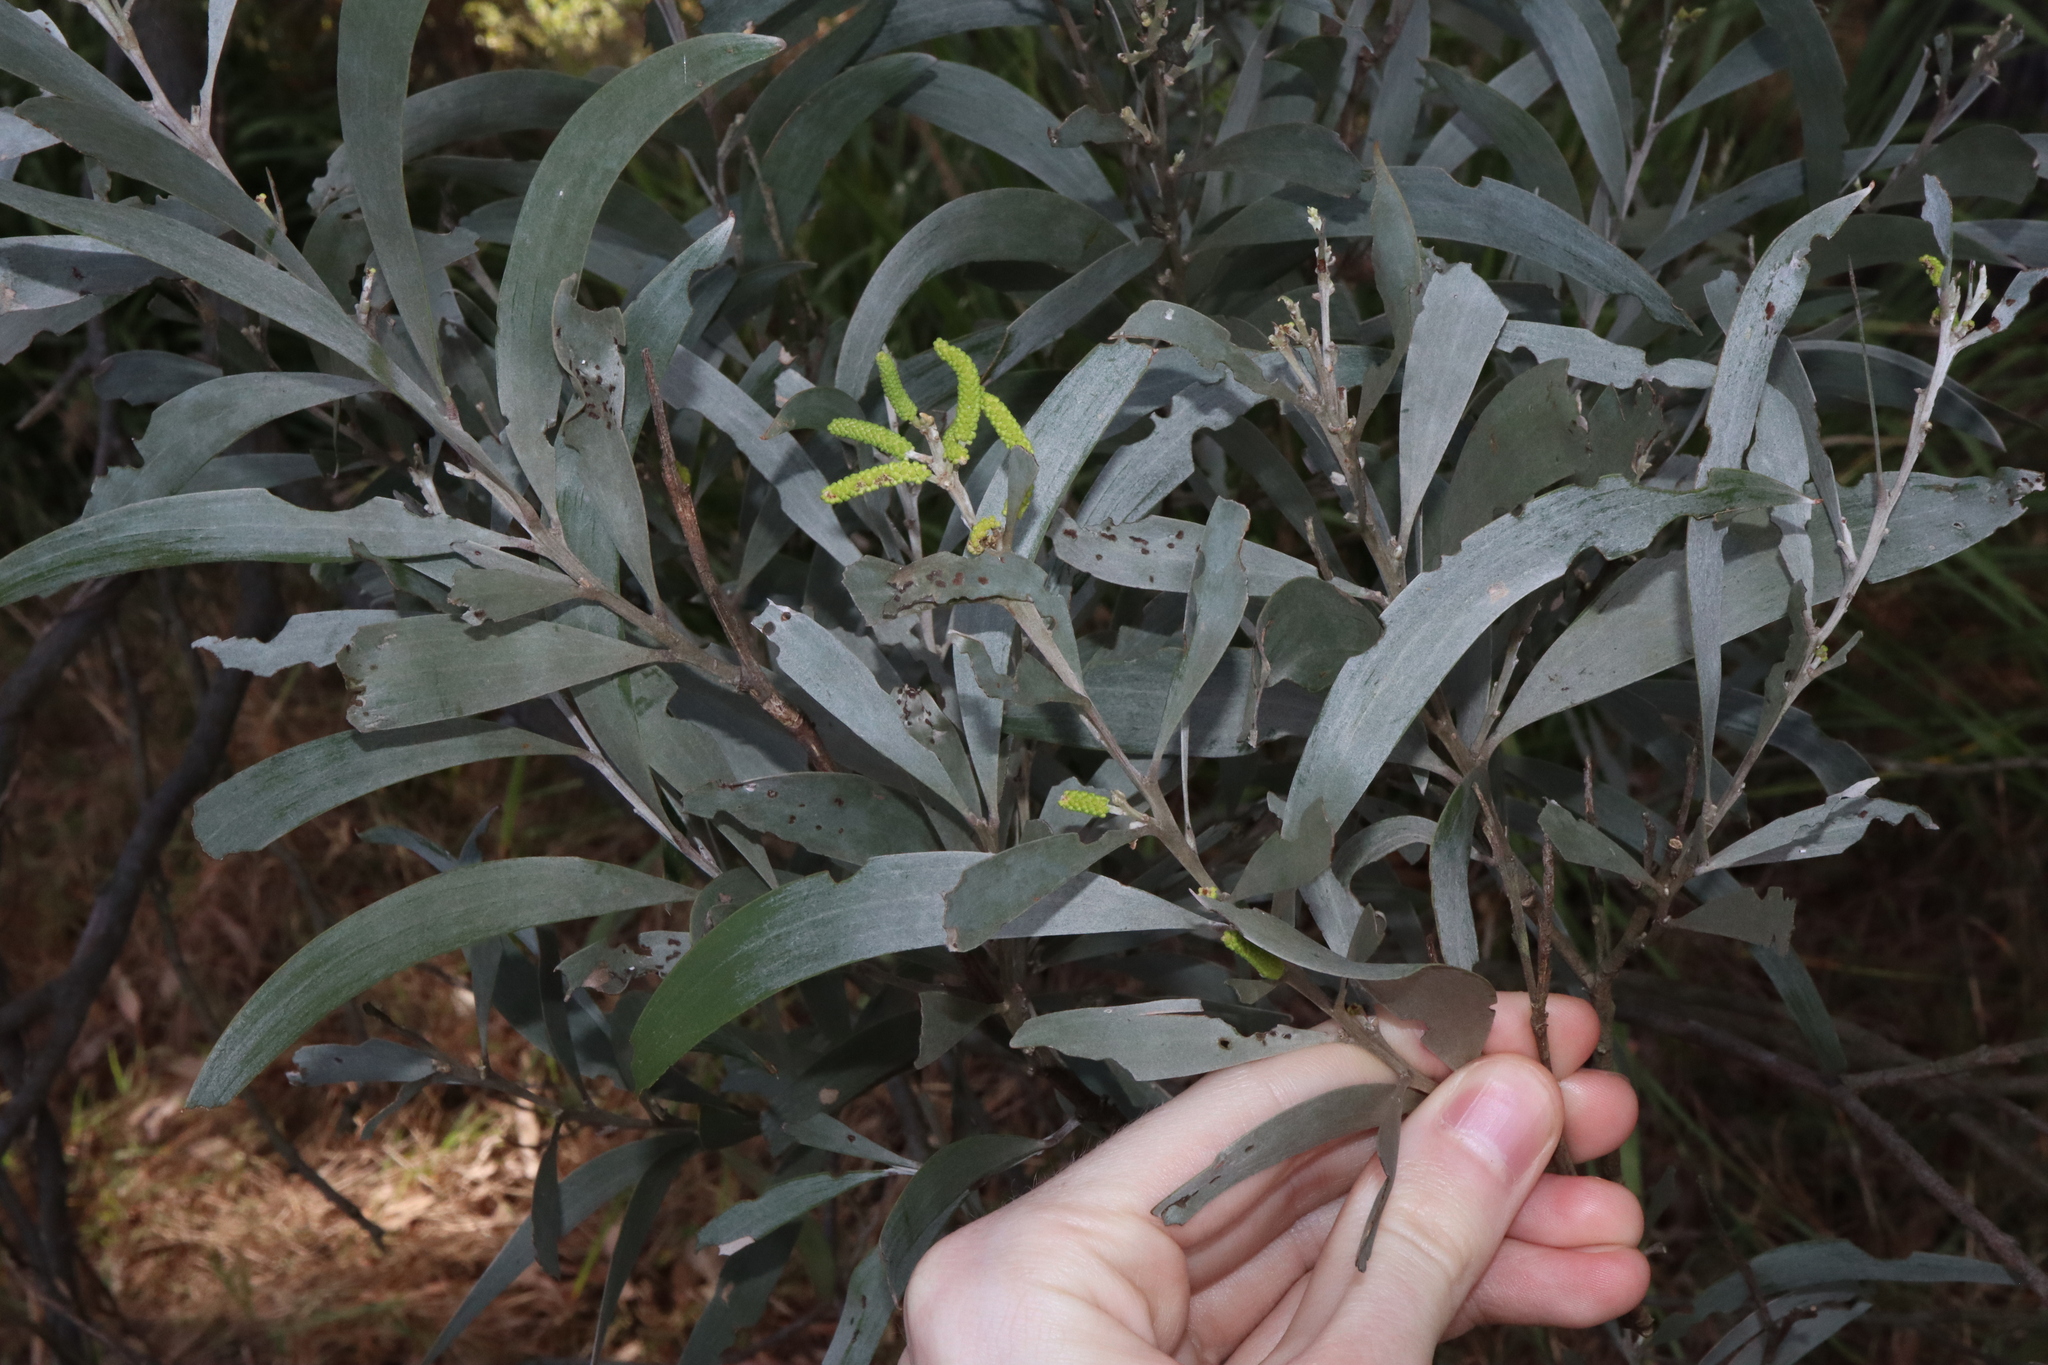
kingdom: Plantae
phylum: Tracheophyta
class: Magnoliopsida
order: Fabales
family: Fabaceae
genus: Acacia
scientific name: Acacia binervia
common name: Coast myall
